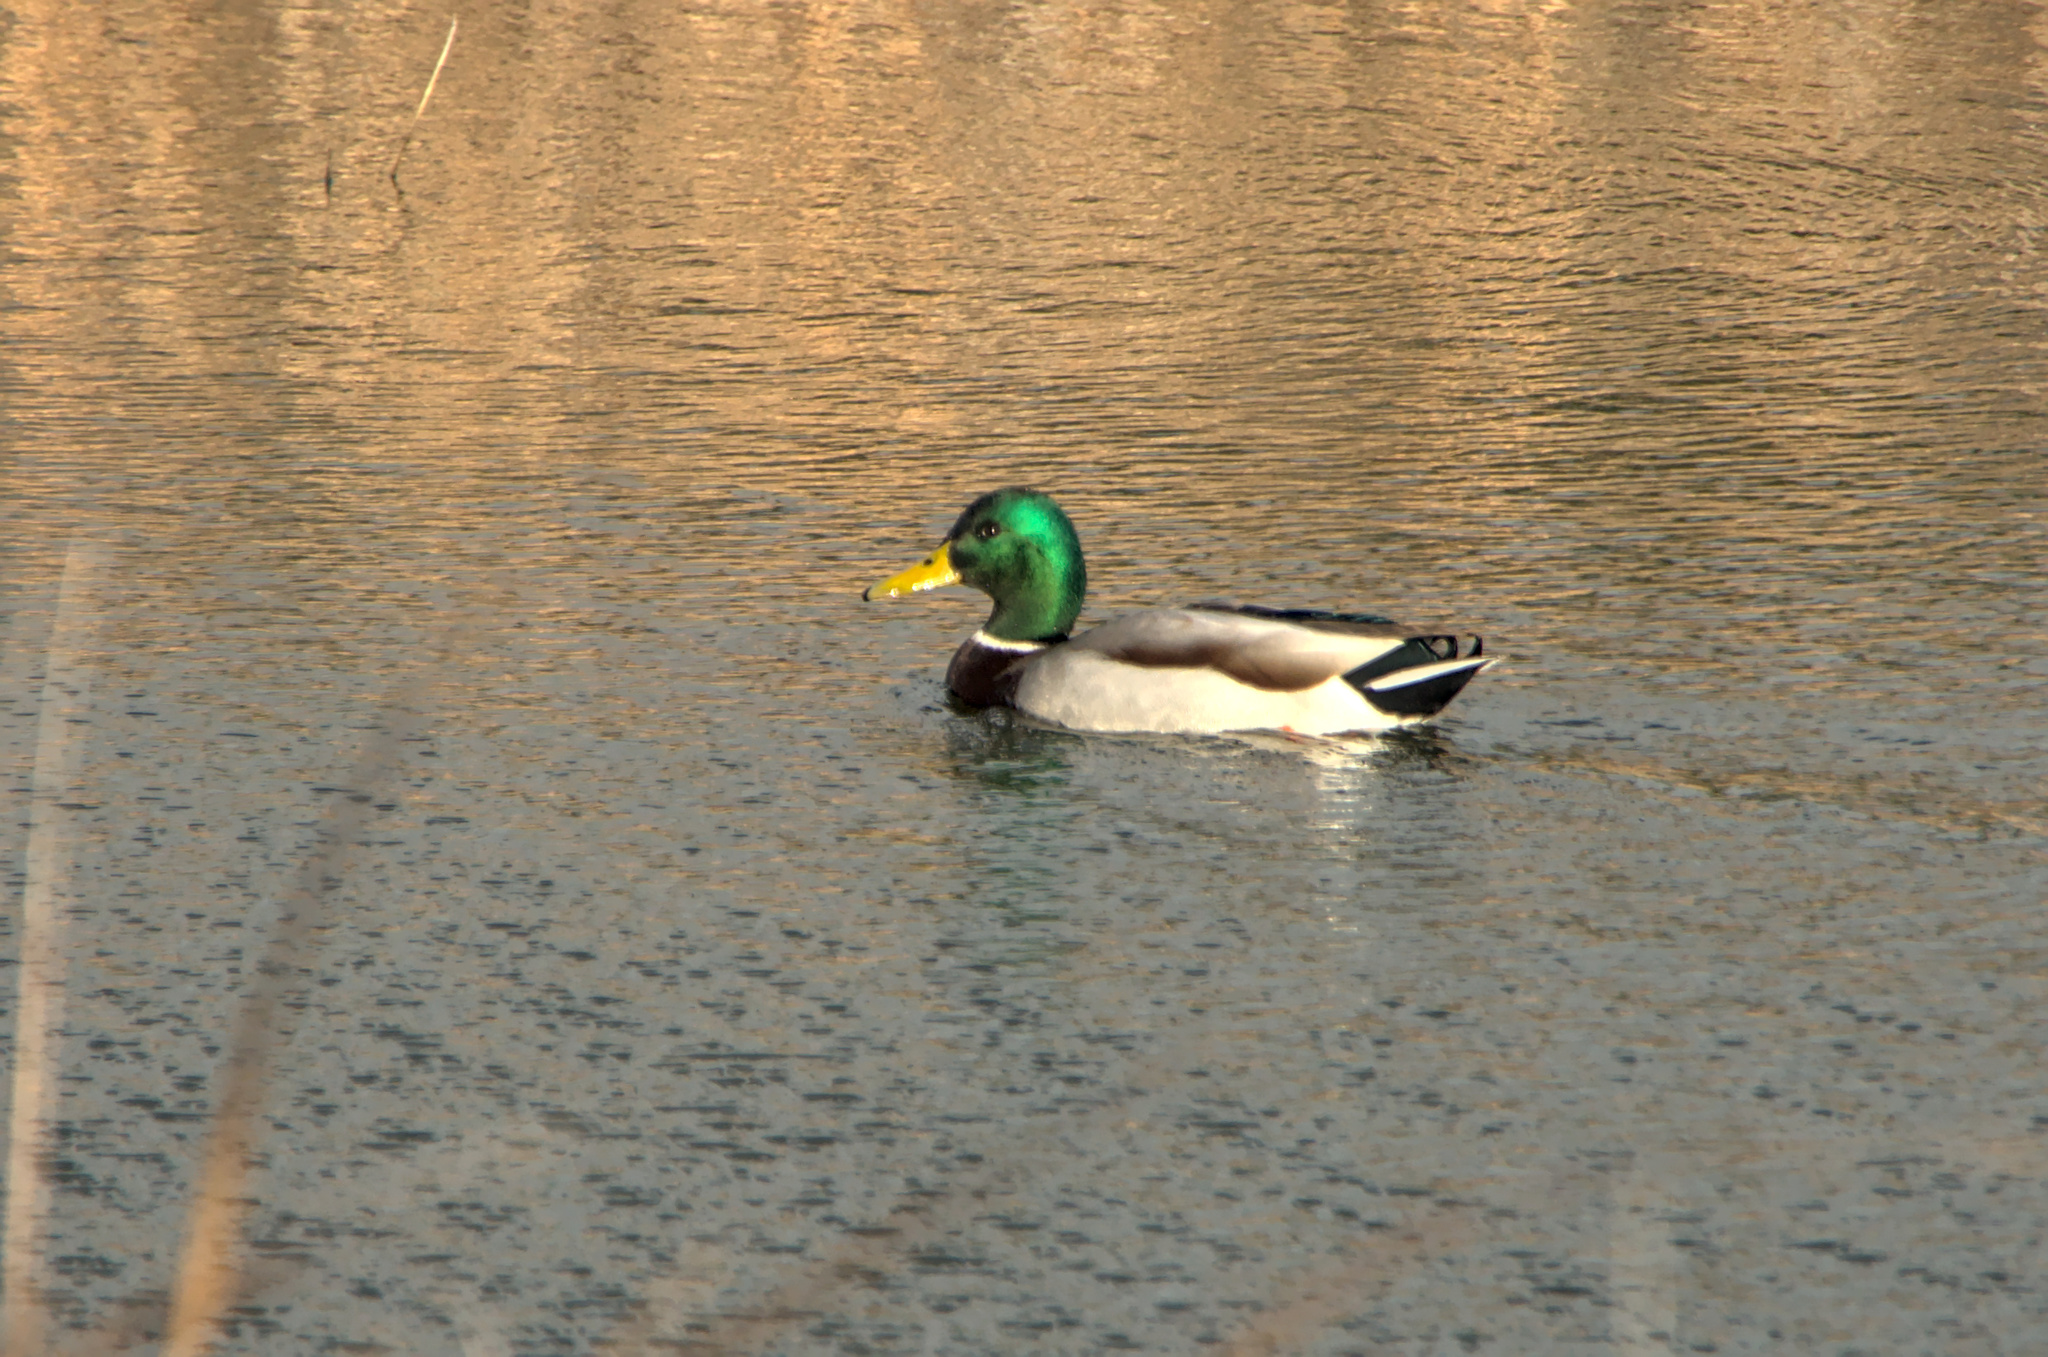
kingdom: Animalia
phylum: Chordata
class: Aves
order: Anseriformes
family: Anatidae
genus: Anas
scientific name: Anas platyrhynchos
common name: Mallard
